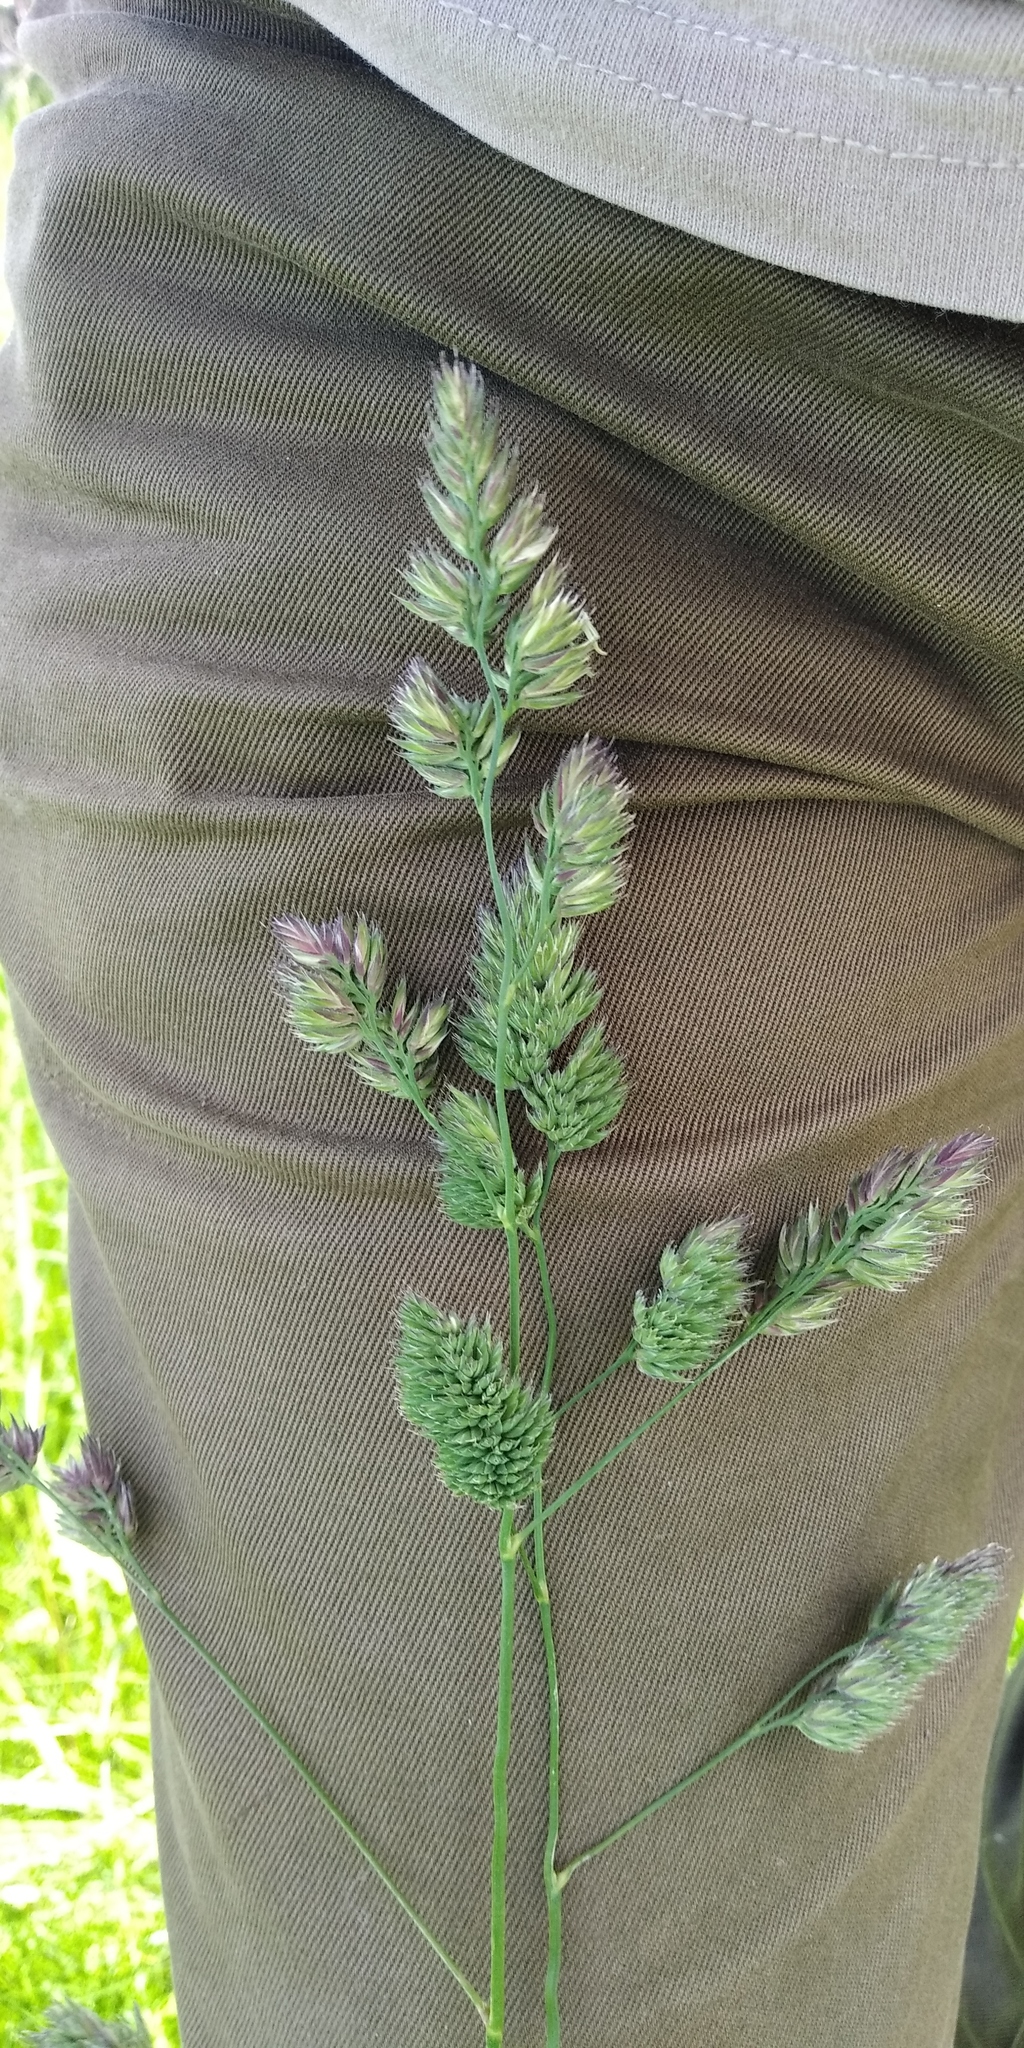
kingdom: Plantae
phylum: Tracheophyta
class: Liliopsida
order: Poales
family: Poaceae
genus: Dactylis
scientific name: Dactylis glomerata
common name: Orchardgrass
